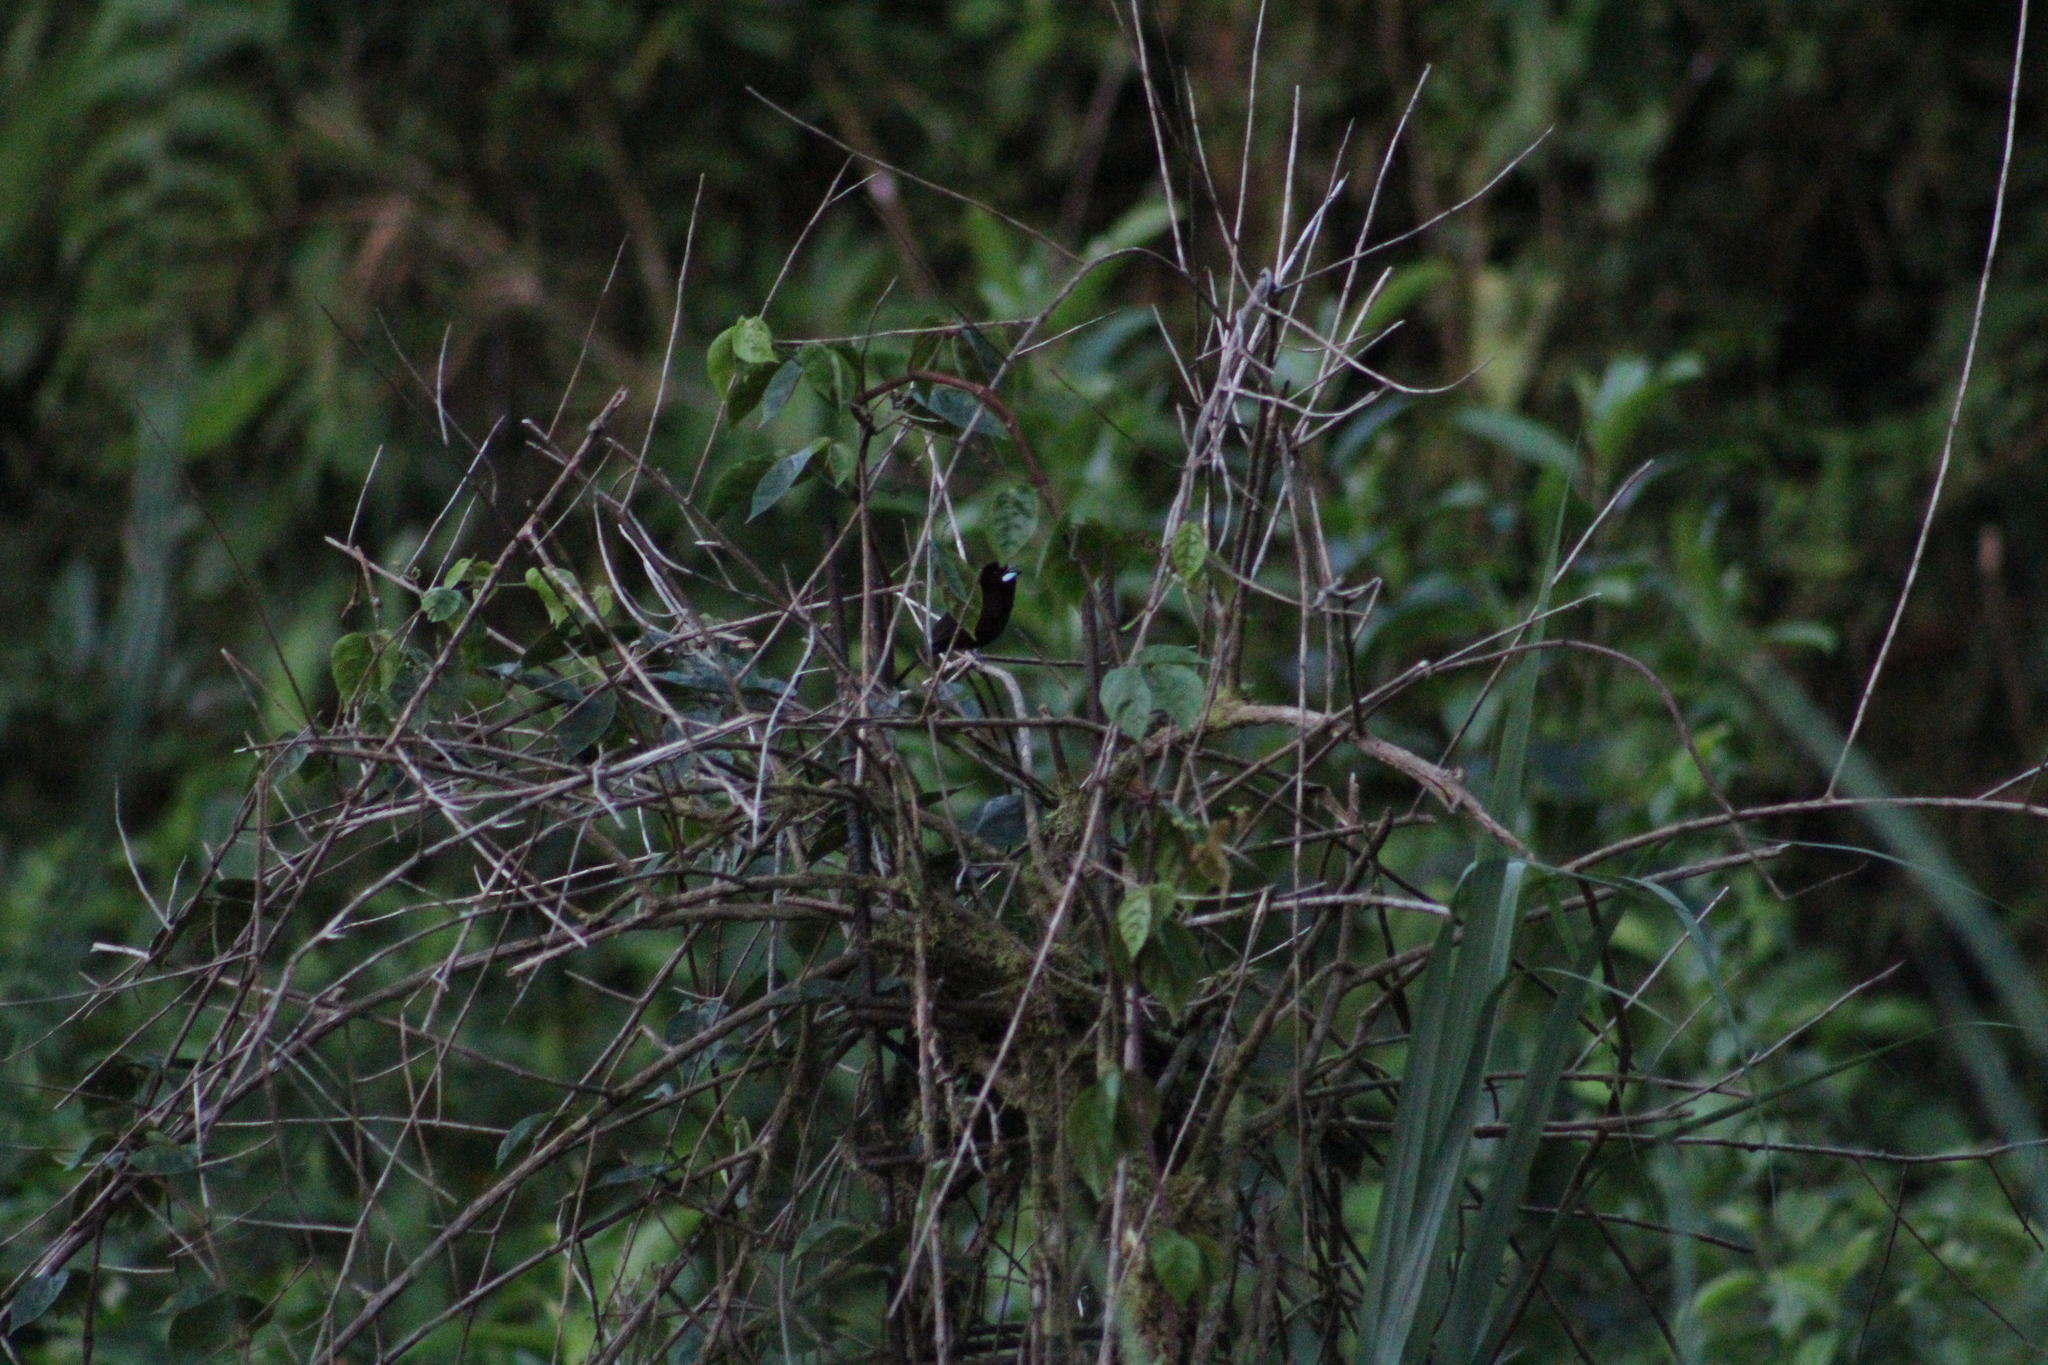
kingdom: Animalia
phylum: Chordata
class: Aves
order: Passeriformes
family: Thraupidae
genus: Ramphocelus
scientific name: Ramphocelus carbo
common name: Silver-beaked tanager
